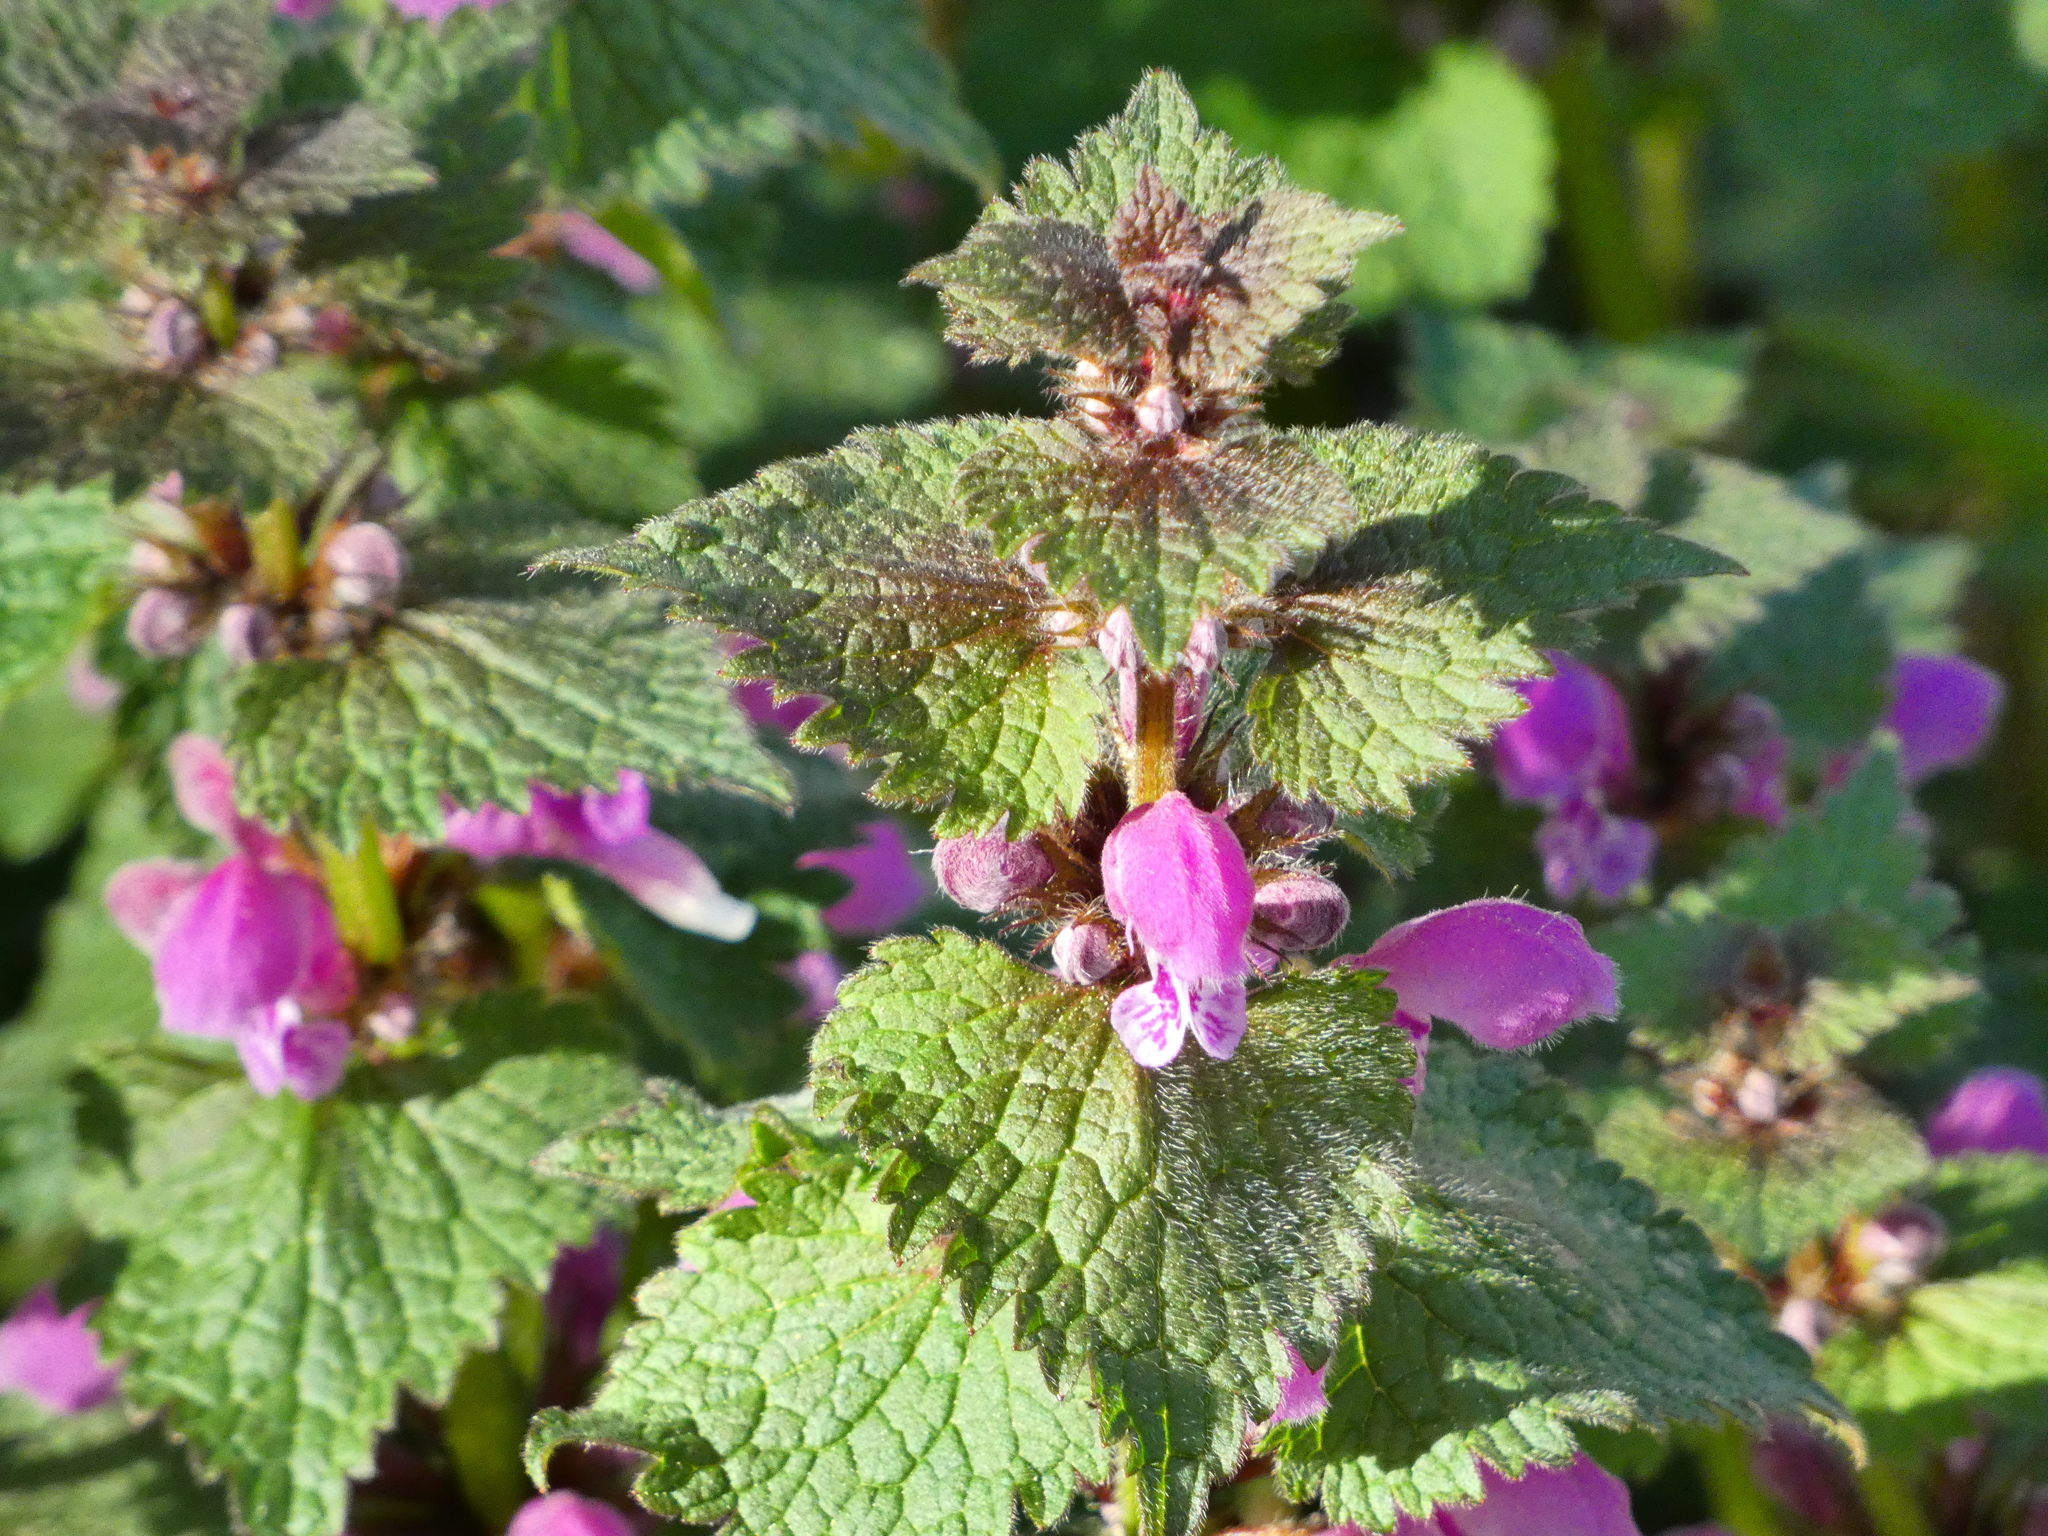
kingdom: Plantae
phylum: Tracheophyta
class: Magnoliopsida
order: Lamiales
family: Lamiaceae
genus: Lamium
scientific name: Lamium maculatum
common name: Spotted dead-nettle
